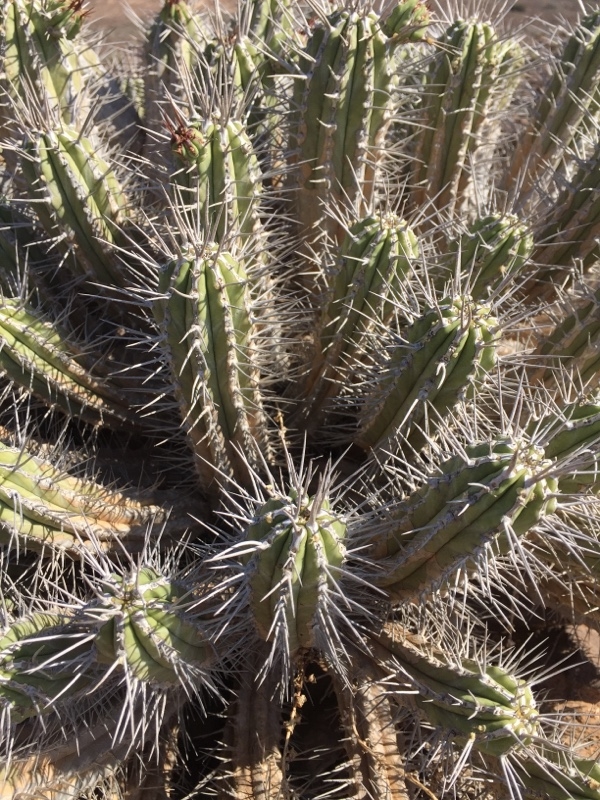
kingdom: Plantae
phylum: Tracheophyta
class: Magnoliopsida
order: Malpighiales
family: Euphorbiaceae
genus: Euphorbia
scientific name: Euphorbia handiensis
